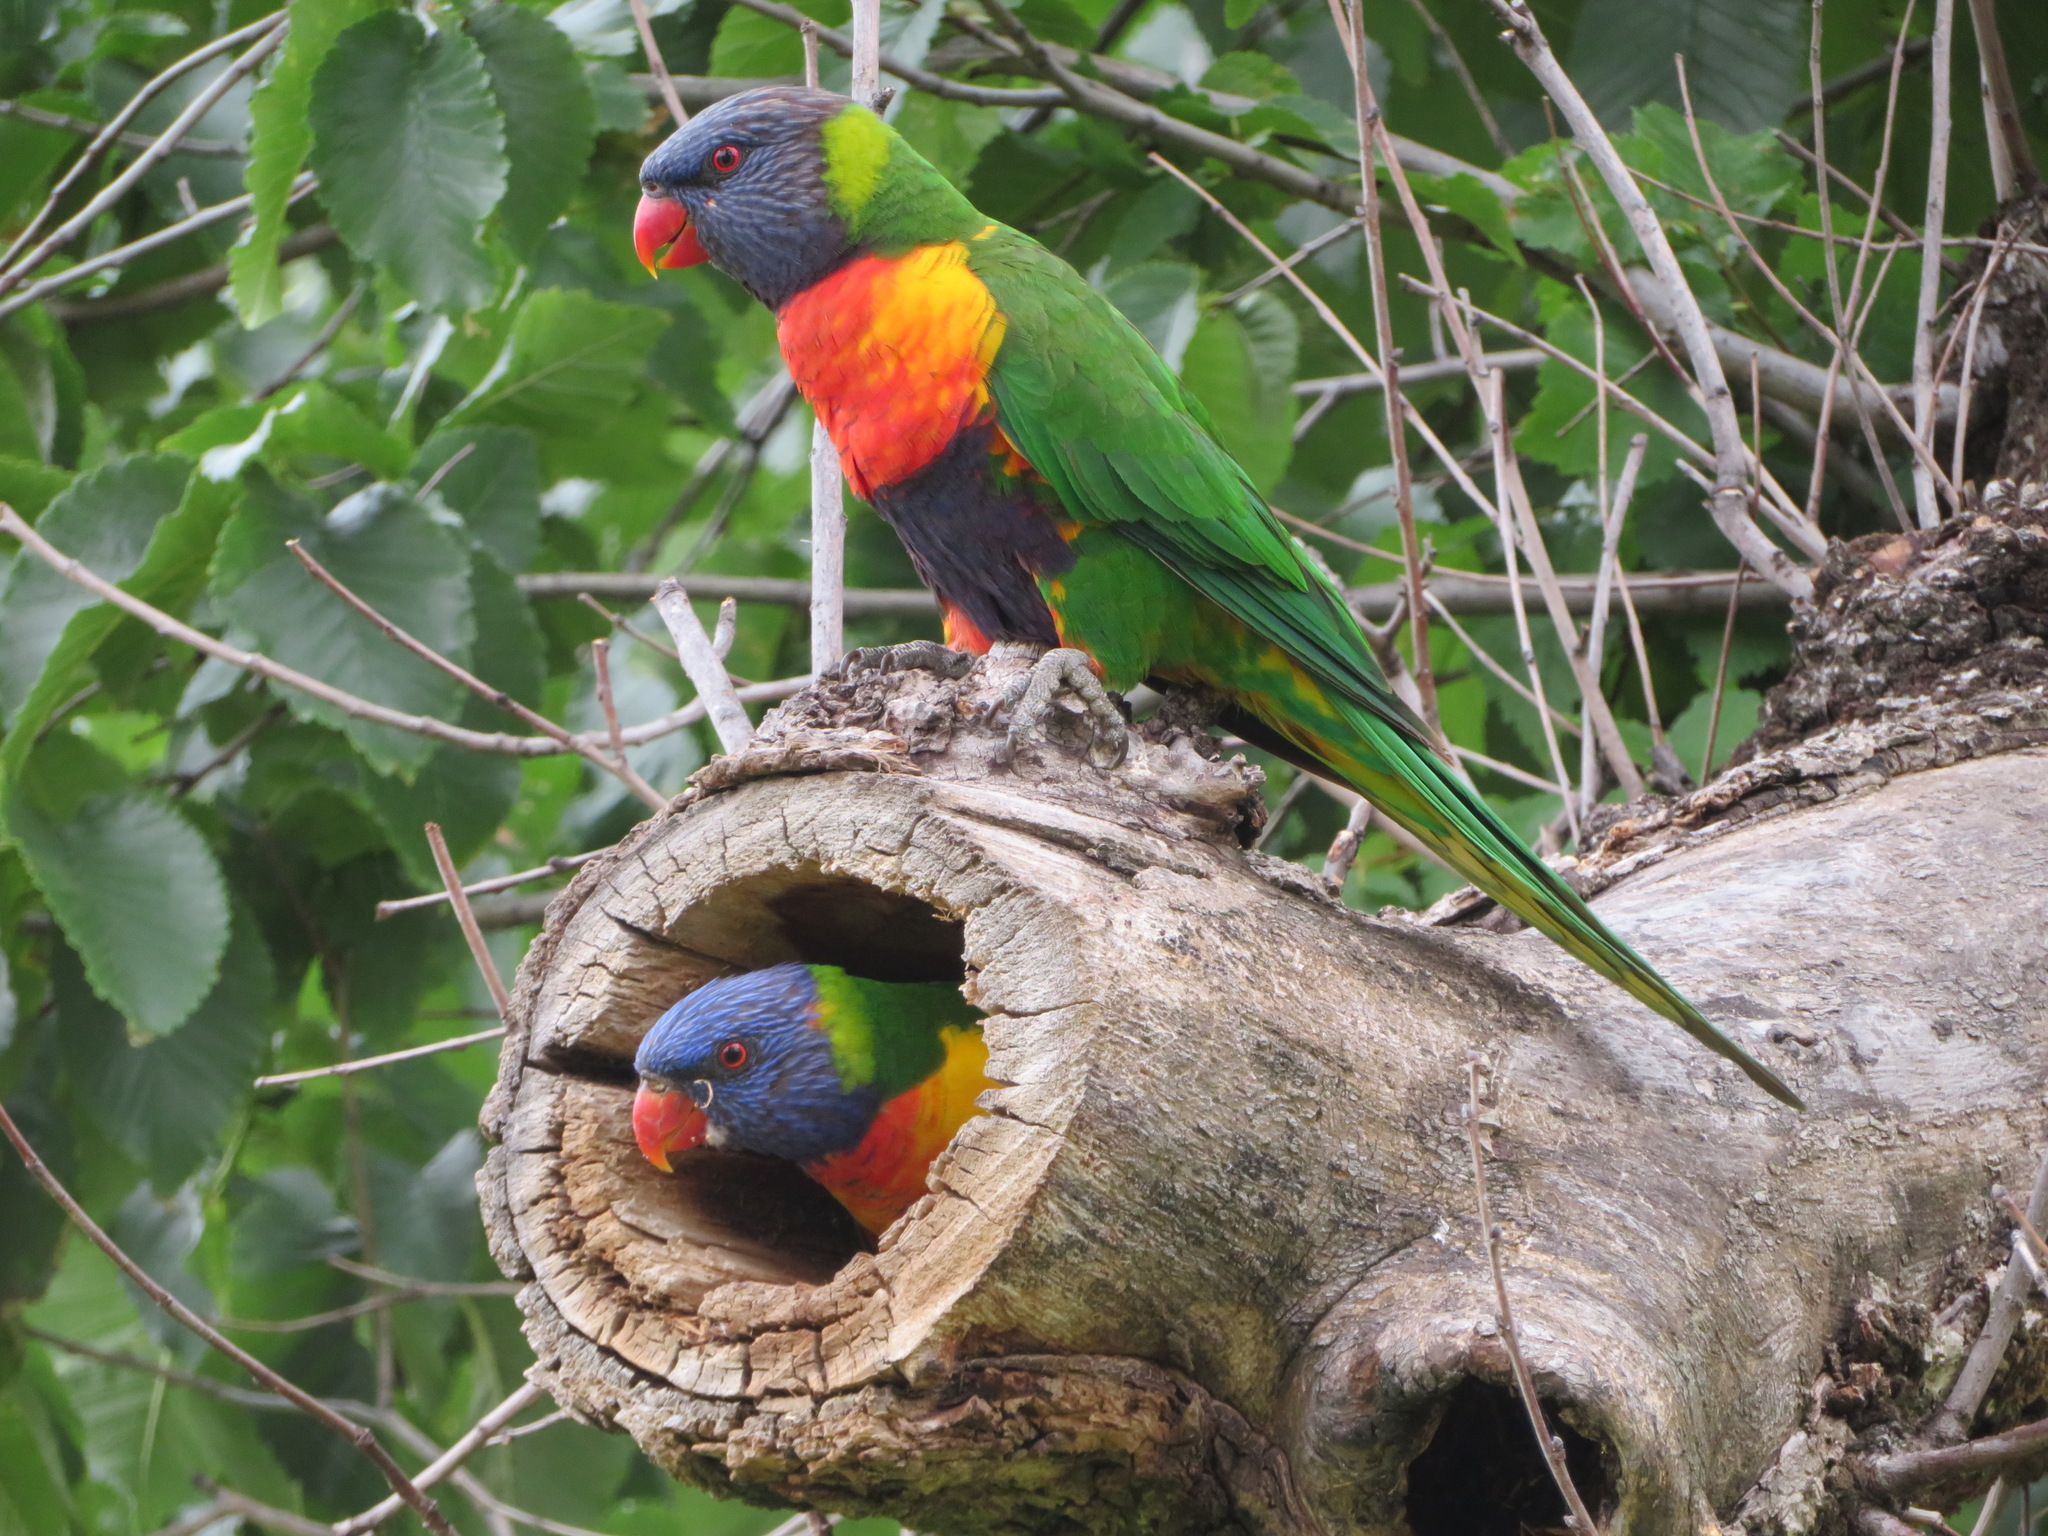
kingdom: Animalia
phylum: Chordata
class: Aves
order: Psittaciformes
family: Psittacidae
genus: Trichoglossus
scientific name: Trichoglossus haematodus
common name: Coconut lorikeet
